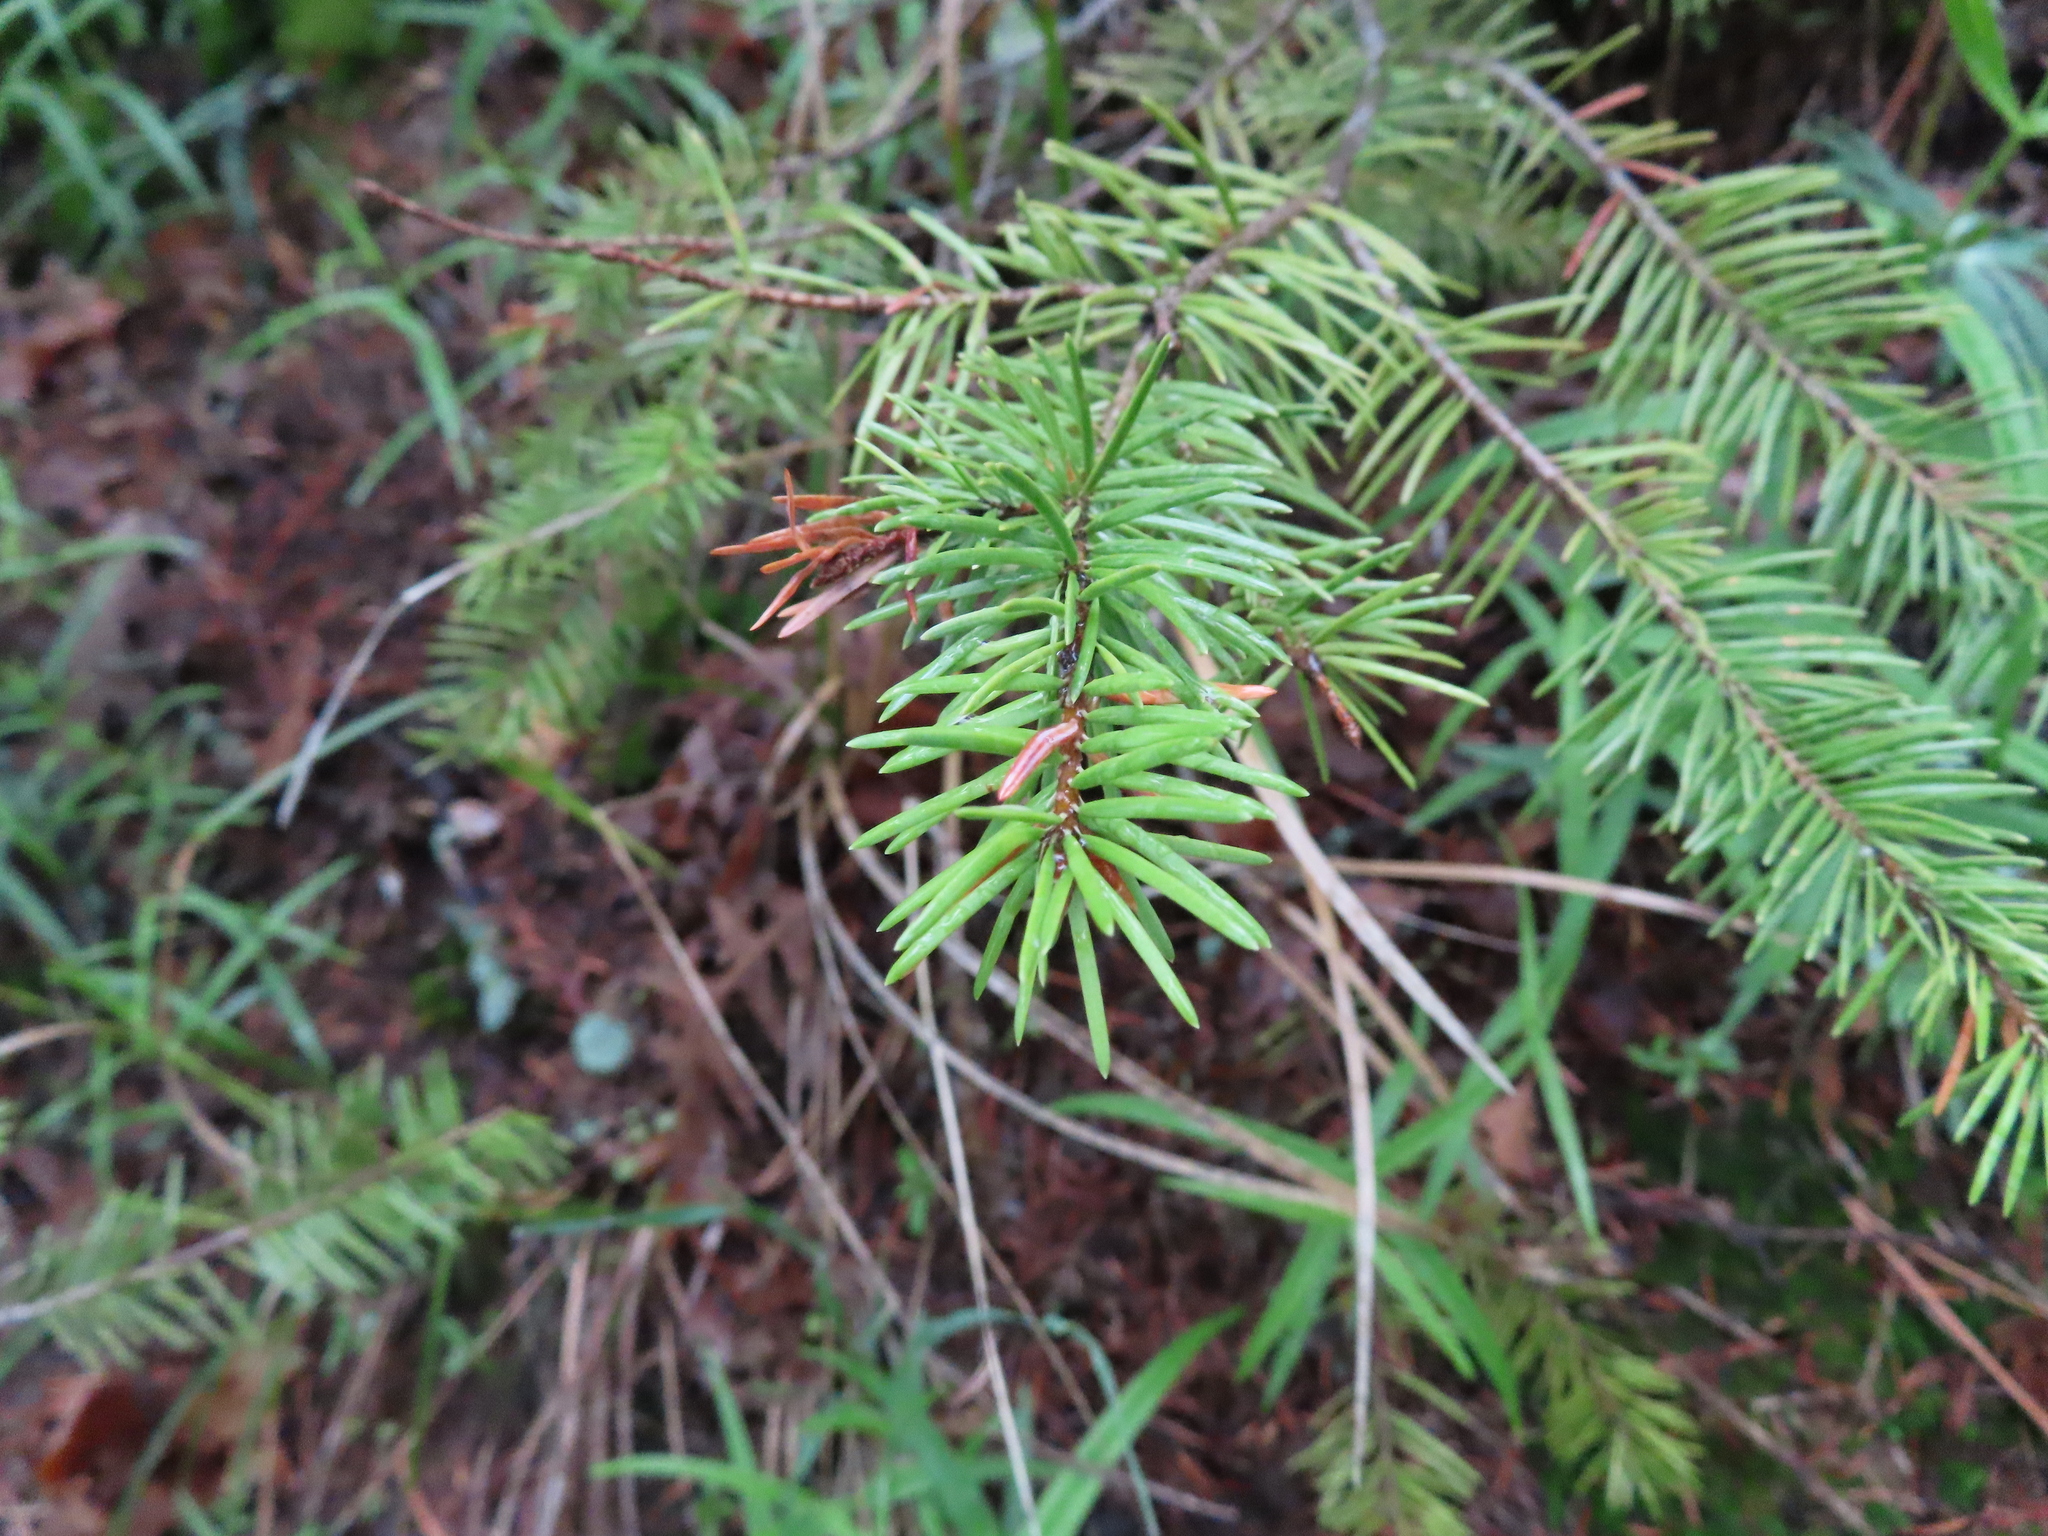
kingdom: Plantae
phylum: Tracheophyta
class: Pinopsida
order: Pinales
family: Pinaceae
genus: Pseudotsuga
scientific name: Pseudotsuga menziesii
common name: Douglas fir
